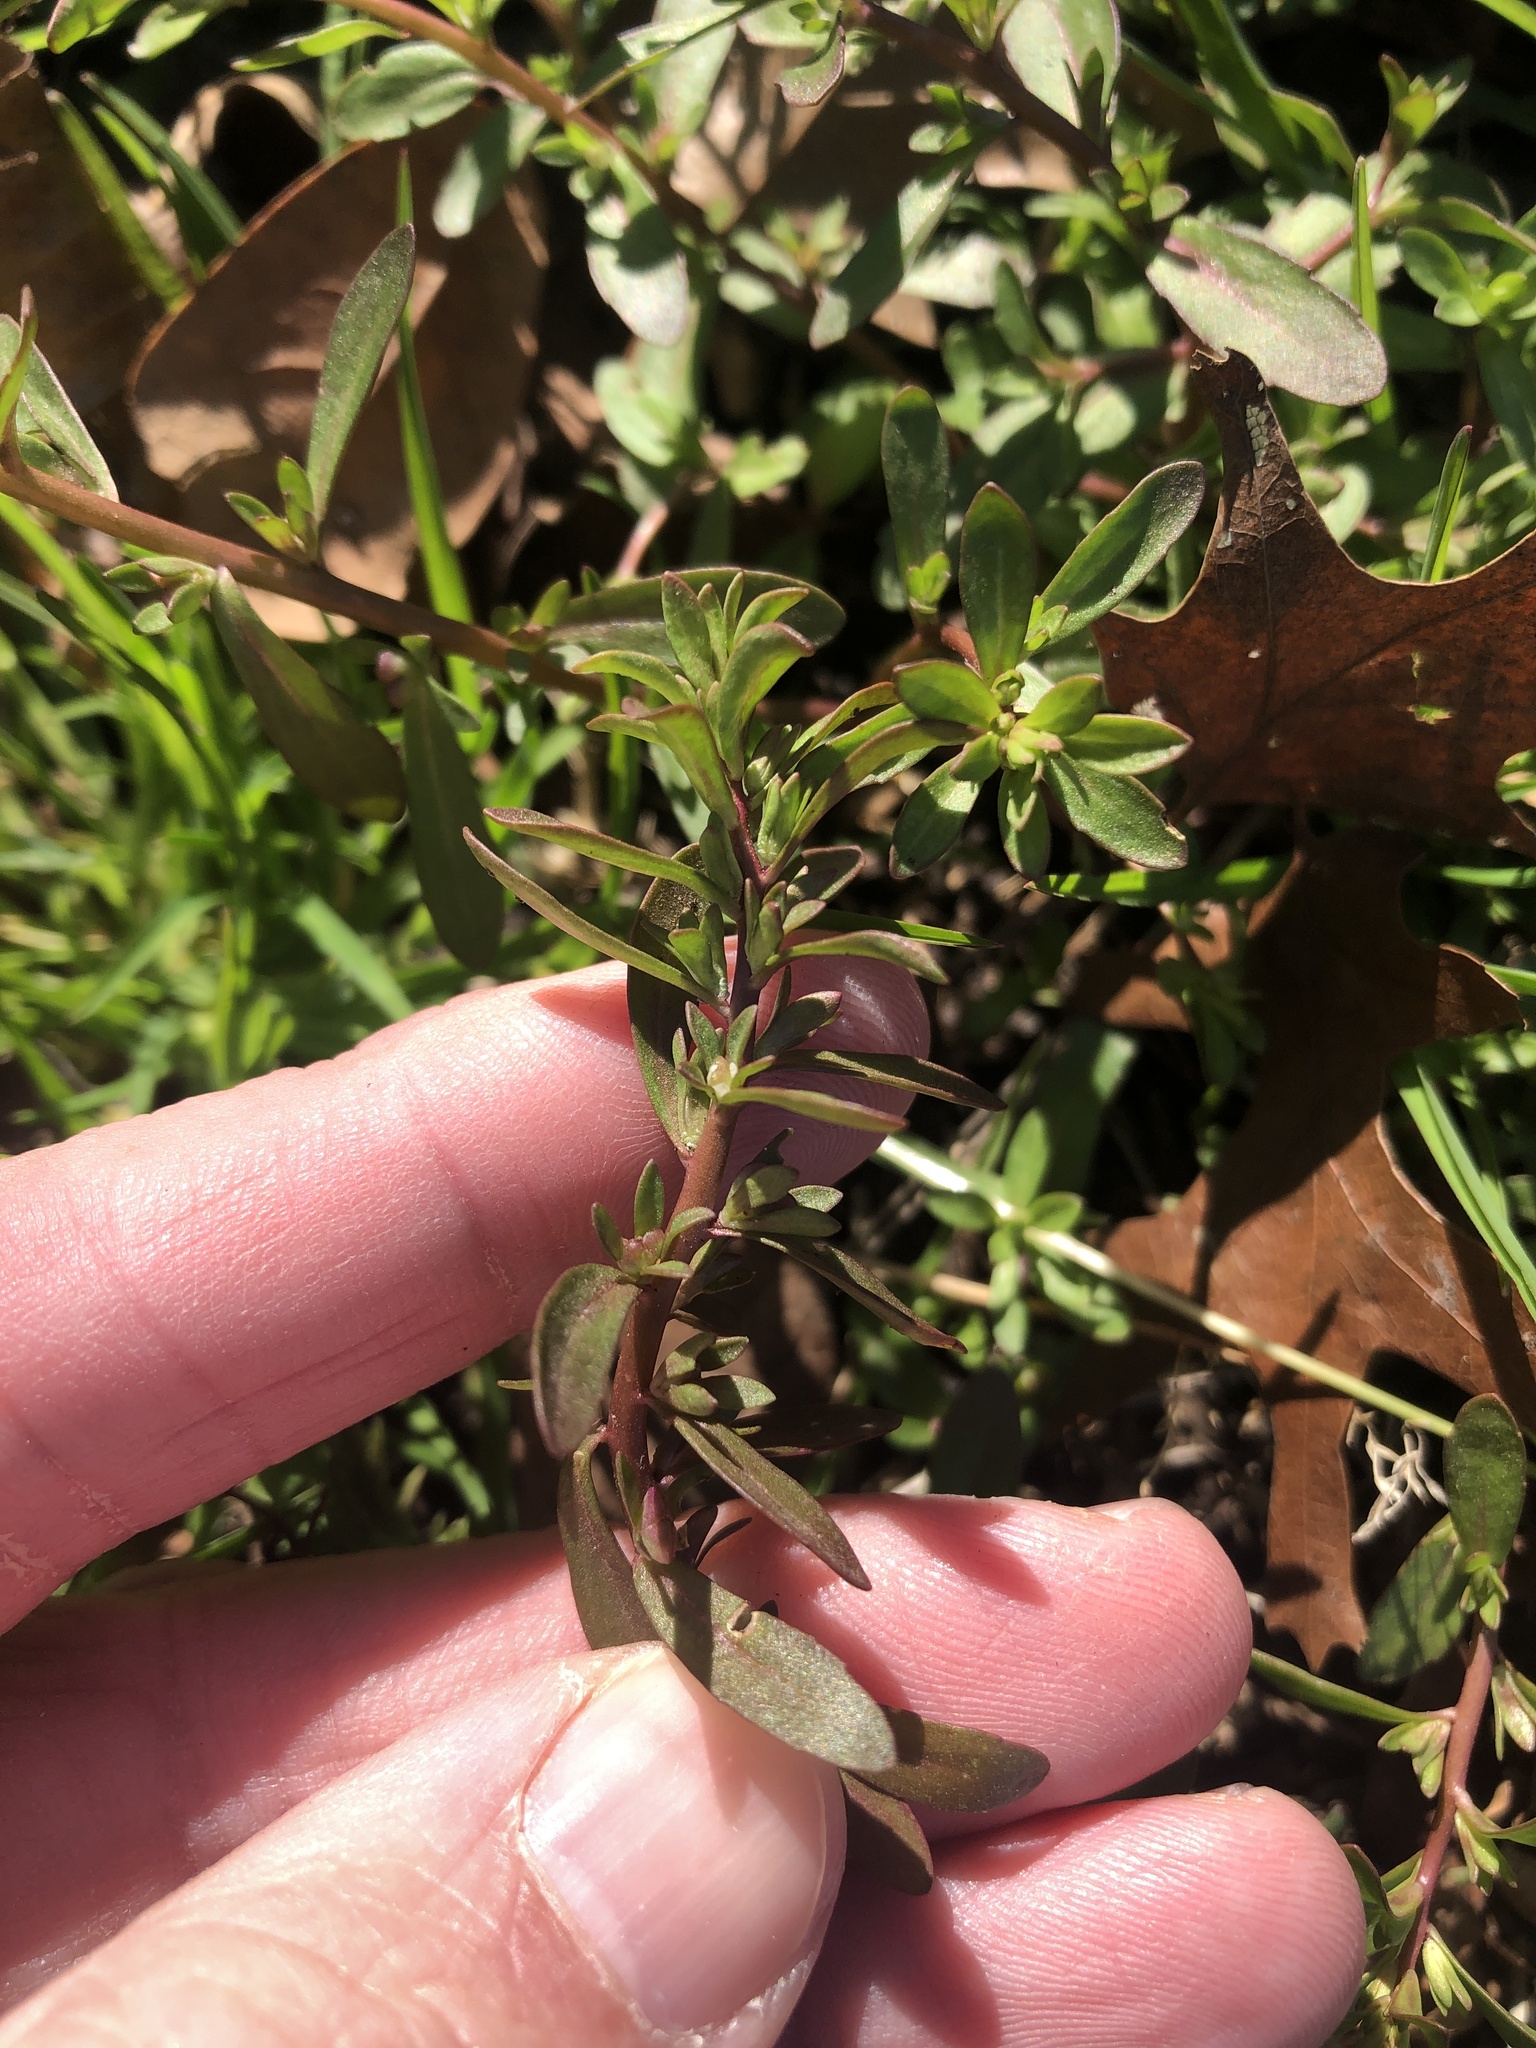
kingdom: Plantae
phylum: Tracheophyta
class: Magnoliopsida
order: Lamiales
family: Plantaginaceae
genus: Veronica
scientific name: Veronica peregrina
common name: Neckweed
